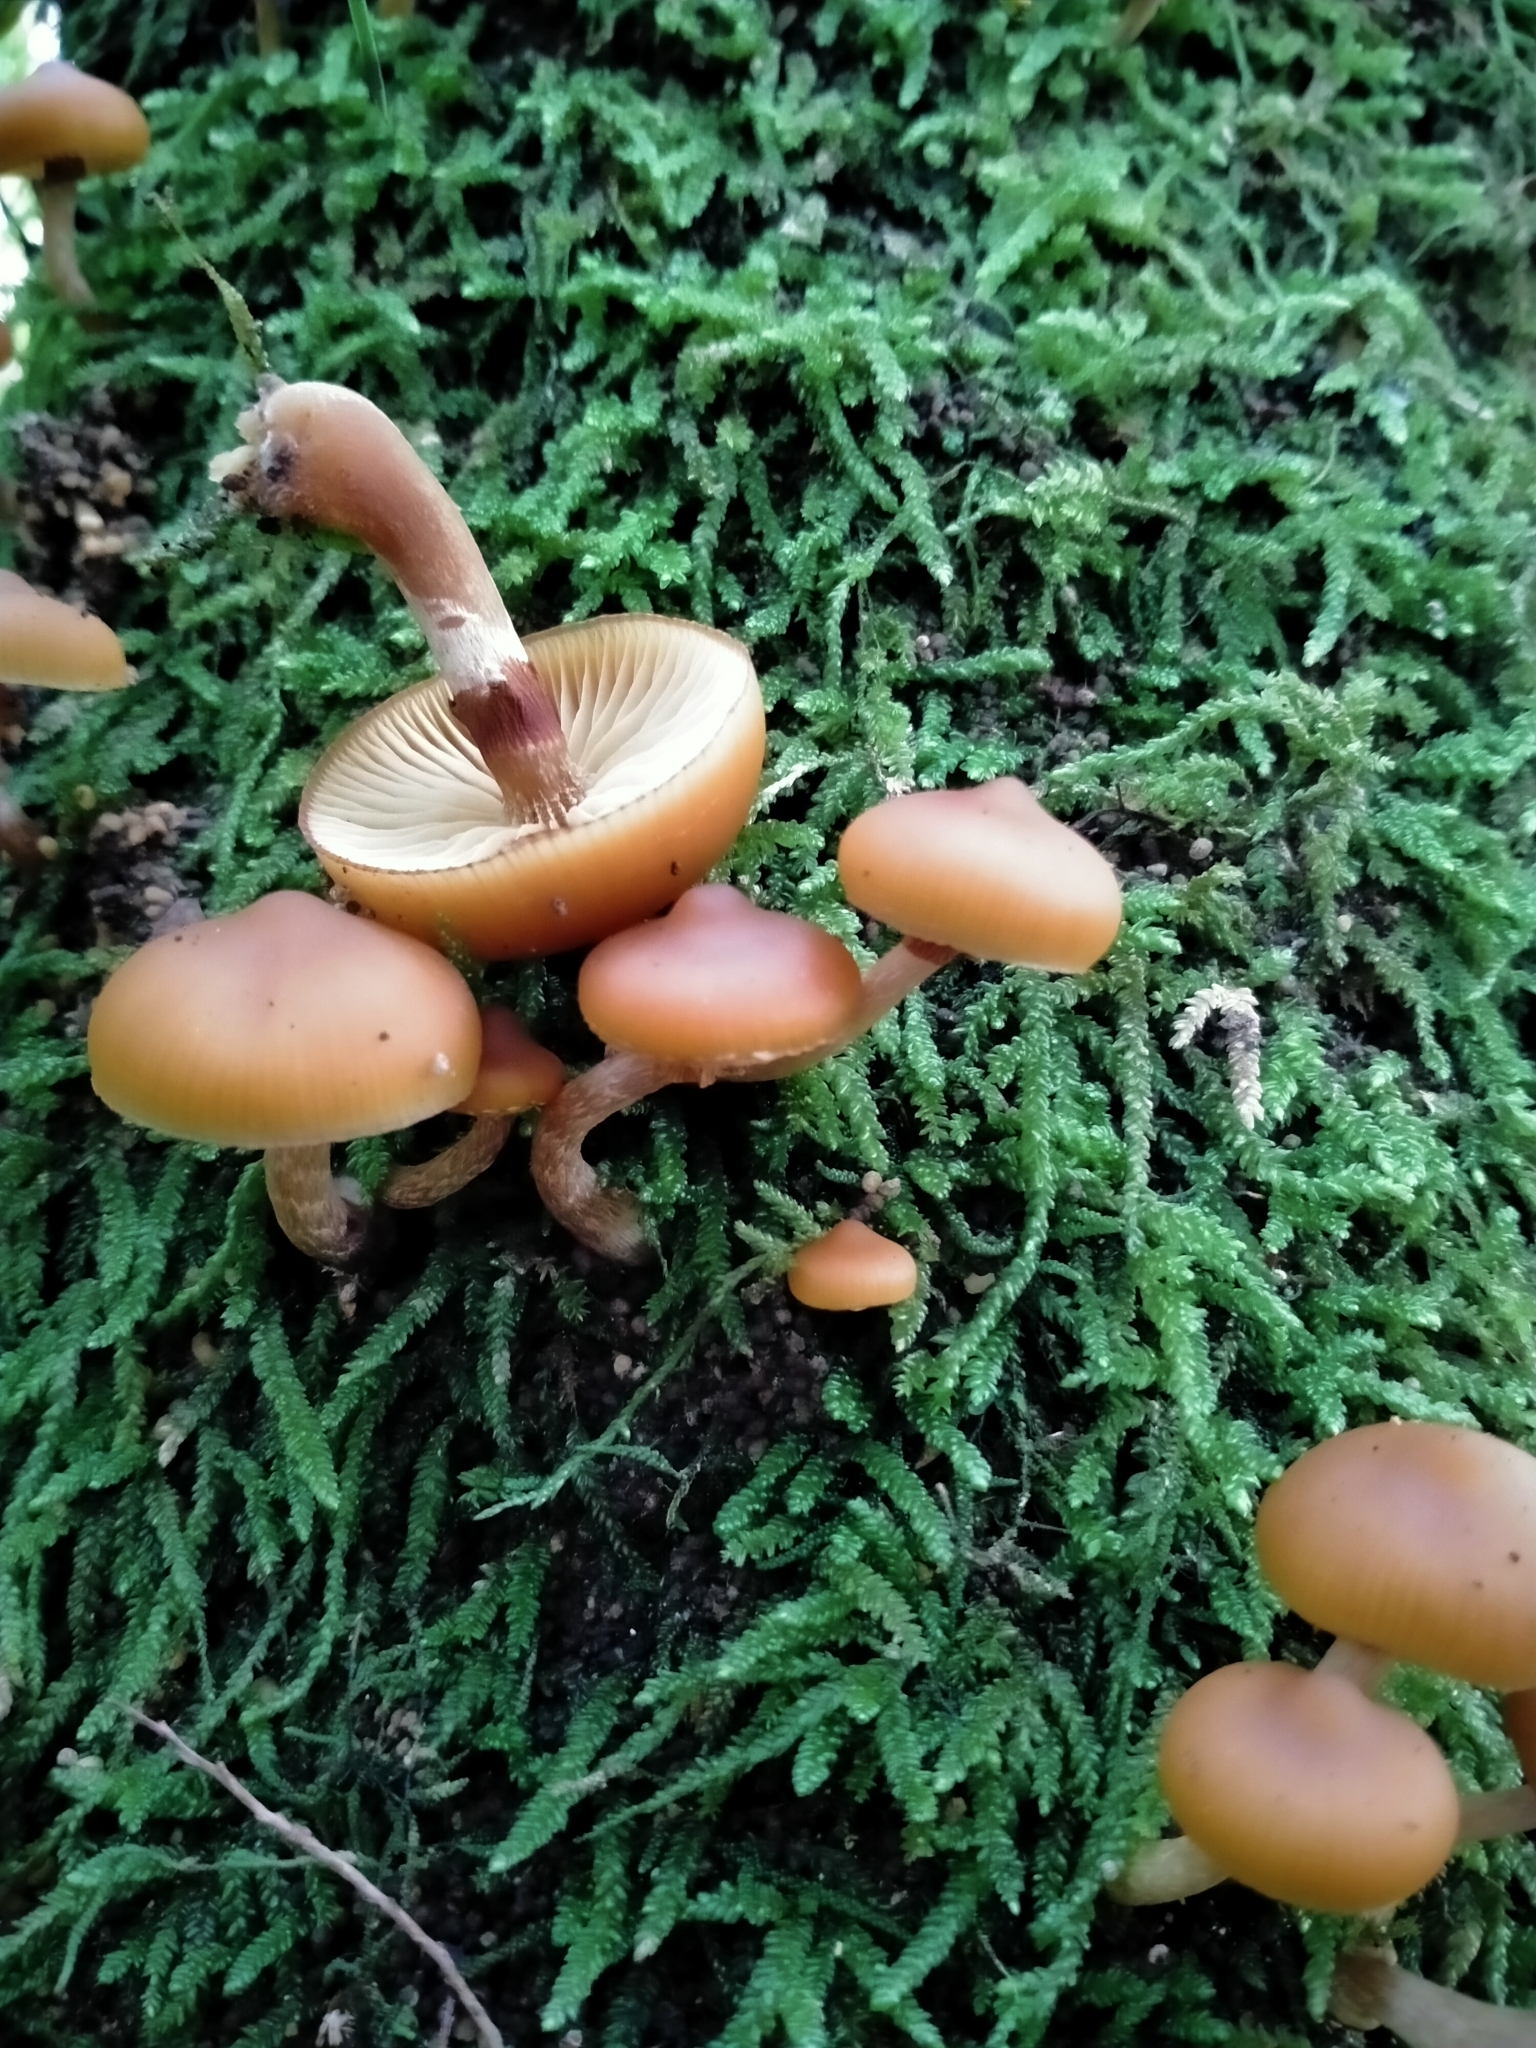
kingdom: Fungi
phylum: Basidiomycota
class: Agaricomycetes
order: Agaricales
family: Hymenogastraceae
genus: Galerina
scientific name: Galerina patagonica
